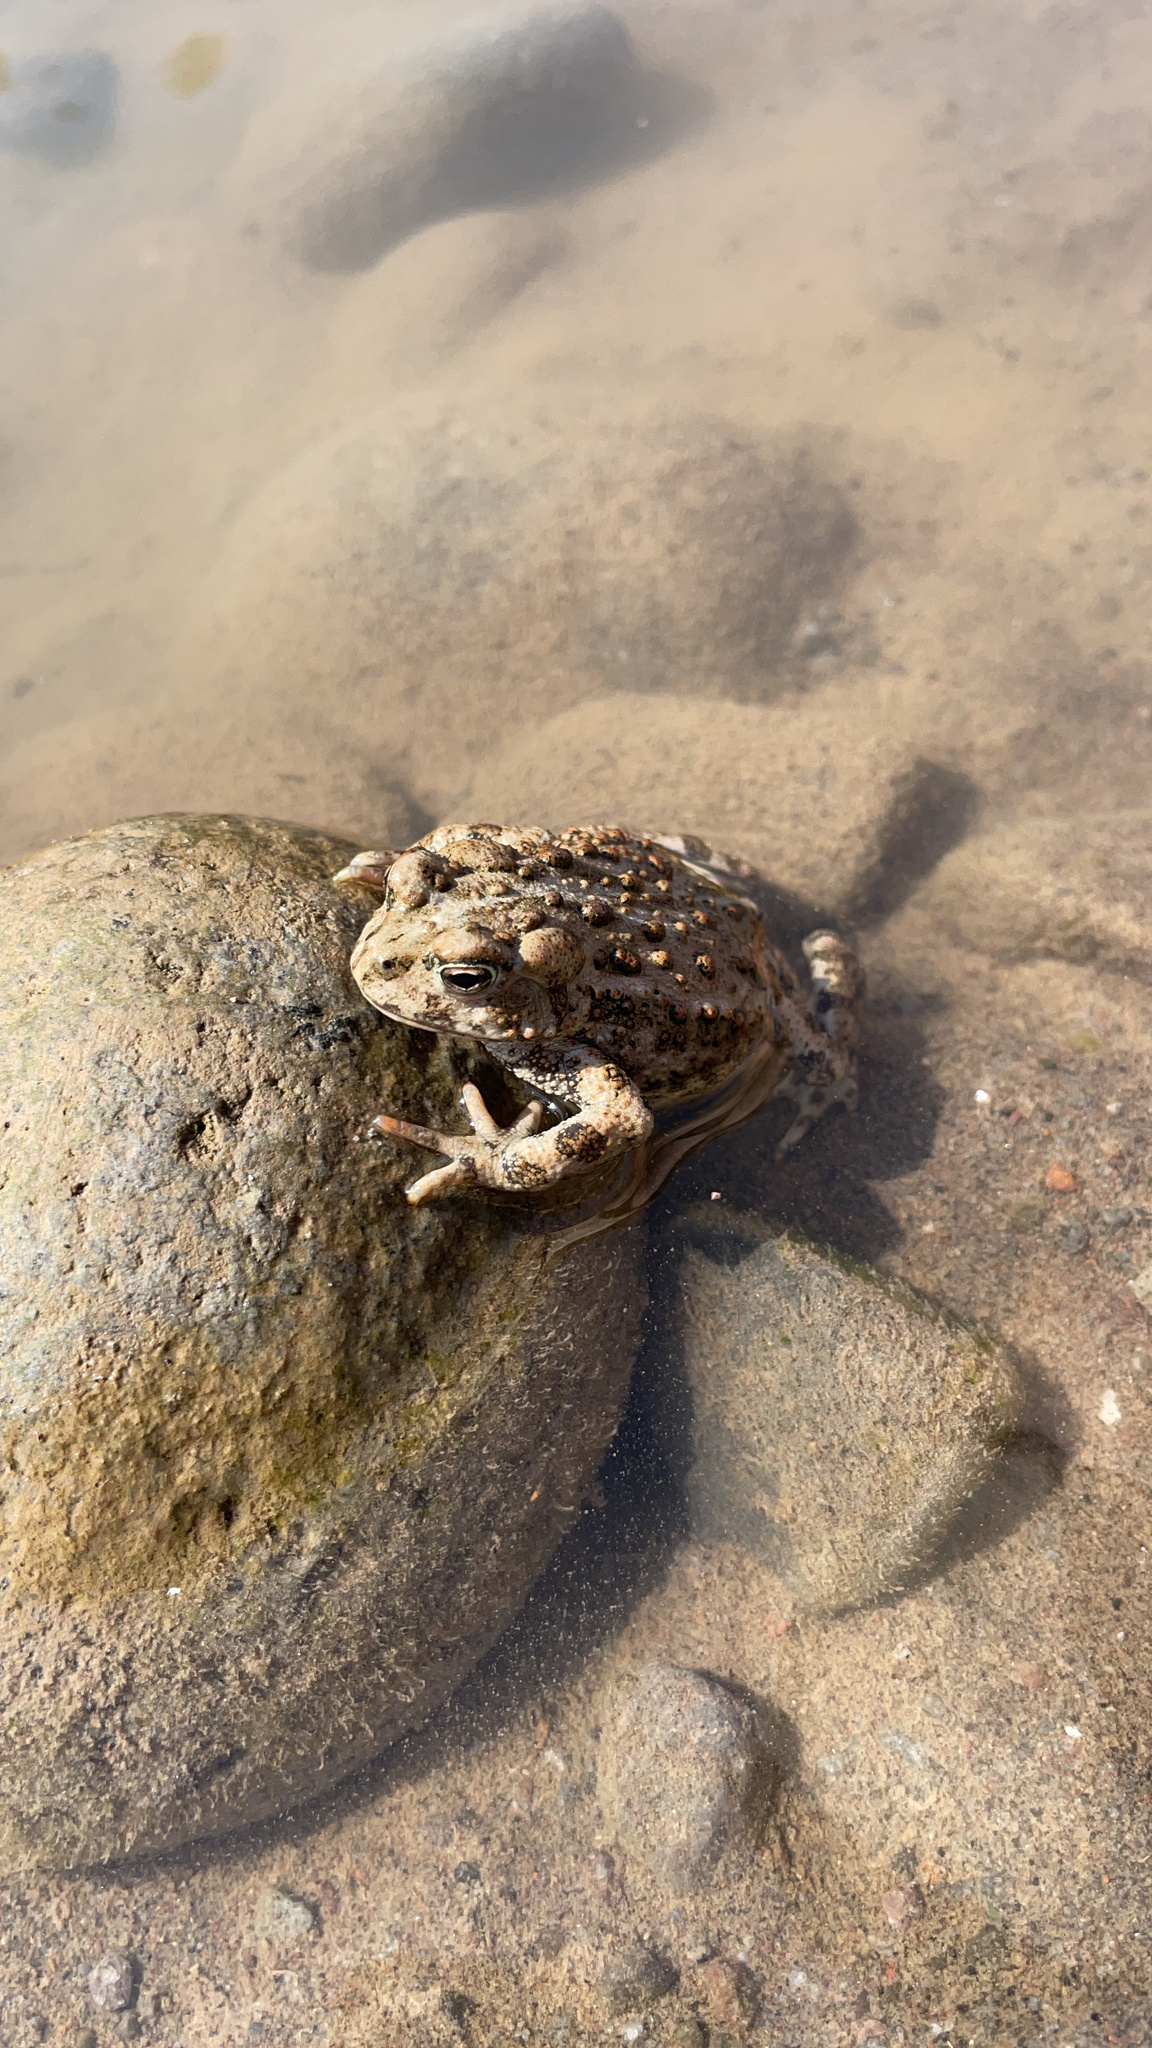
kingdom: Animalia
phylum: Chordata
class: Amphibia
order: Anura
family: Bufonidae
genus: Anaxyrus
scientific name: Anaxyrus boreas
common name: Western toad
